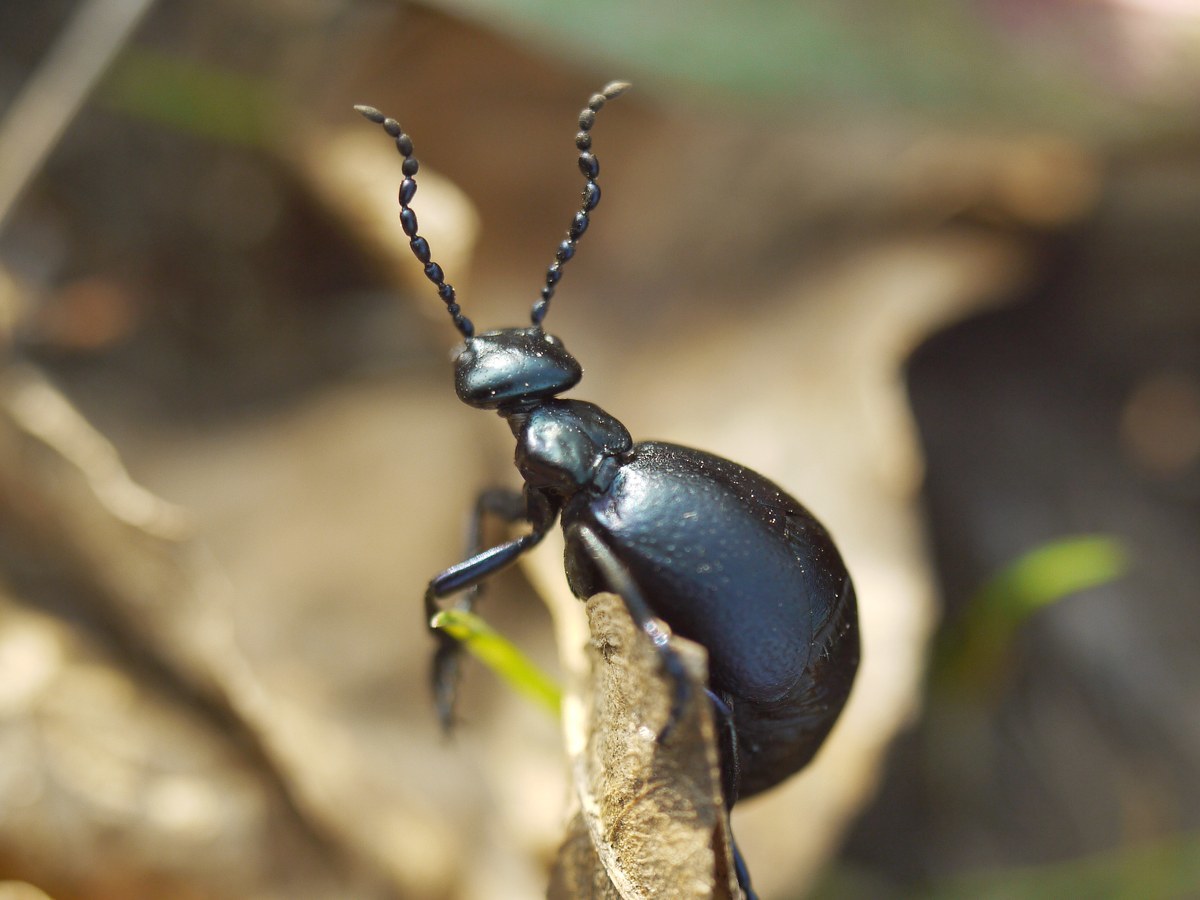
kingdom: Animalia
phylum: Arthropoda
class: Insecta
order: Coleoptera
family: Meloidae
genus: Meloe
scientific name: Meloe autumnalis
